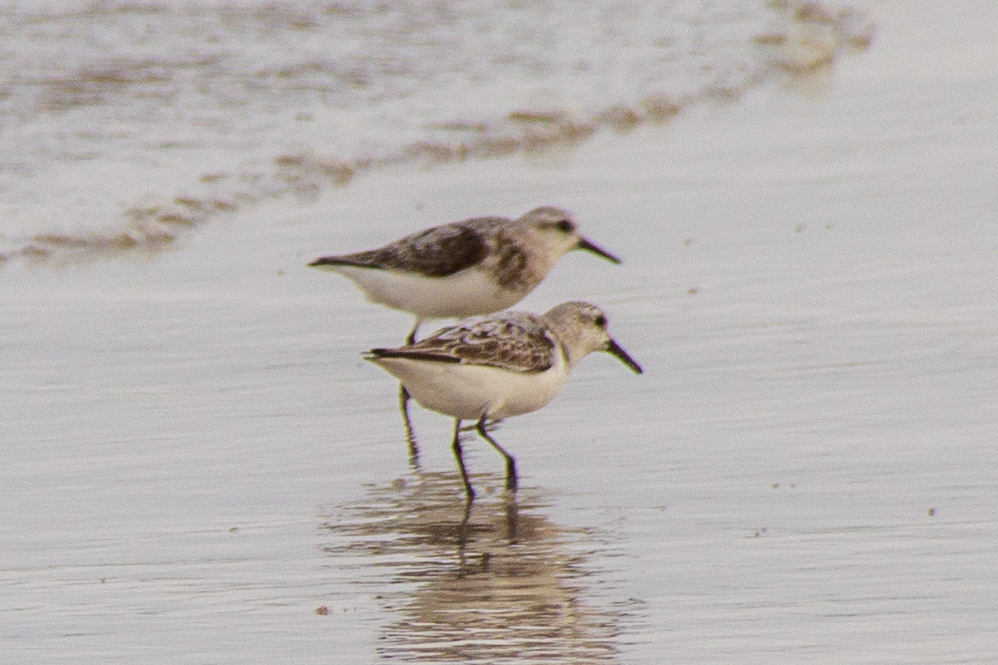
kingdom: Animalia
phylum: Chordata
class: Aves
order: Charadriiformes
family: Scolopacidae
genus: Calidris
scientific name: Calidris alba
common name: Sanderling
